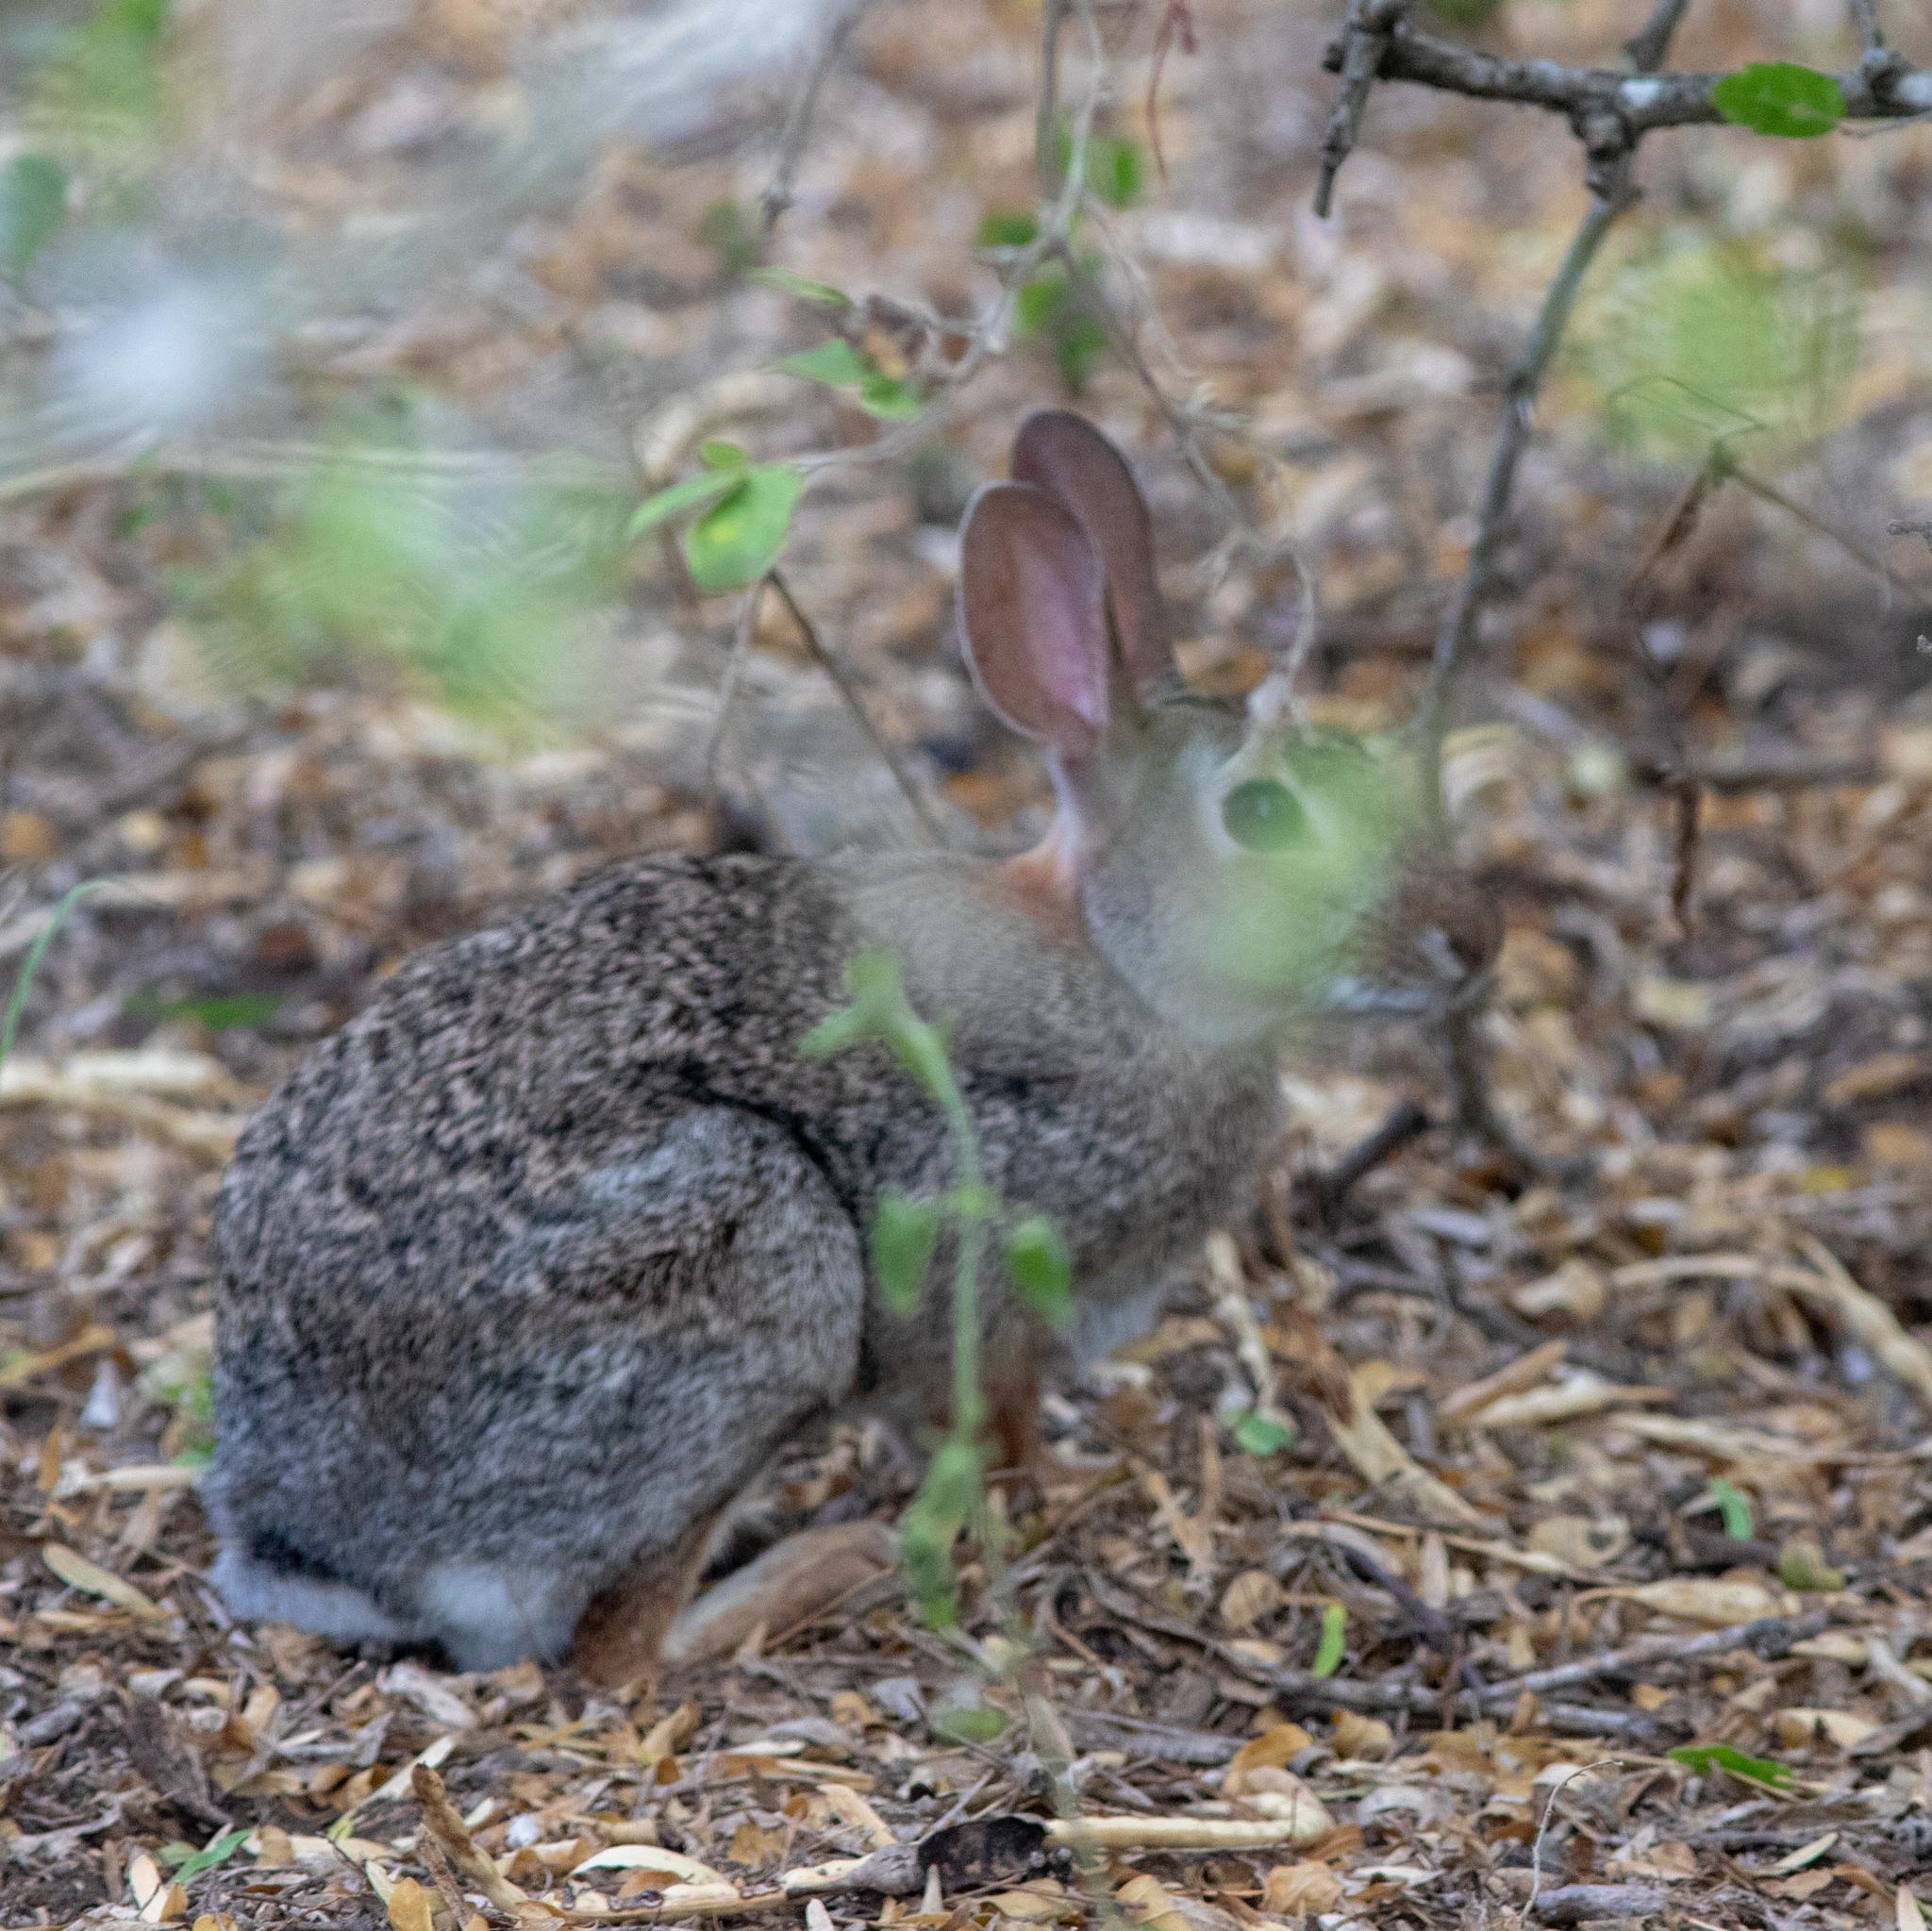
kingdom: Animalia
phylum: Chordata
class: Mammalia
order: Lagomorpha
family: Leporidae
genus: Sylvilagus
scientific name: Sylvilagus floridanus
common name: Eastern cottontail
